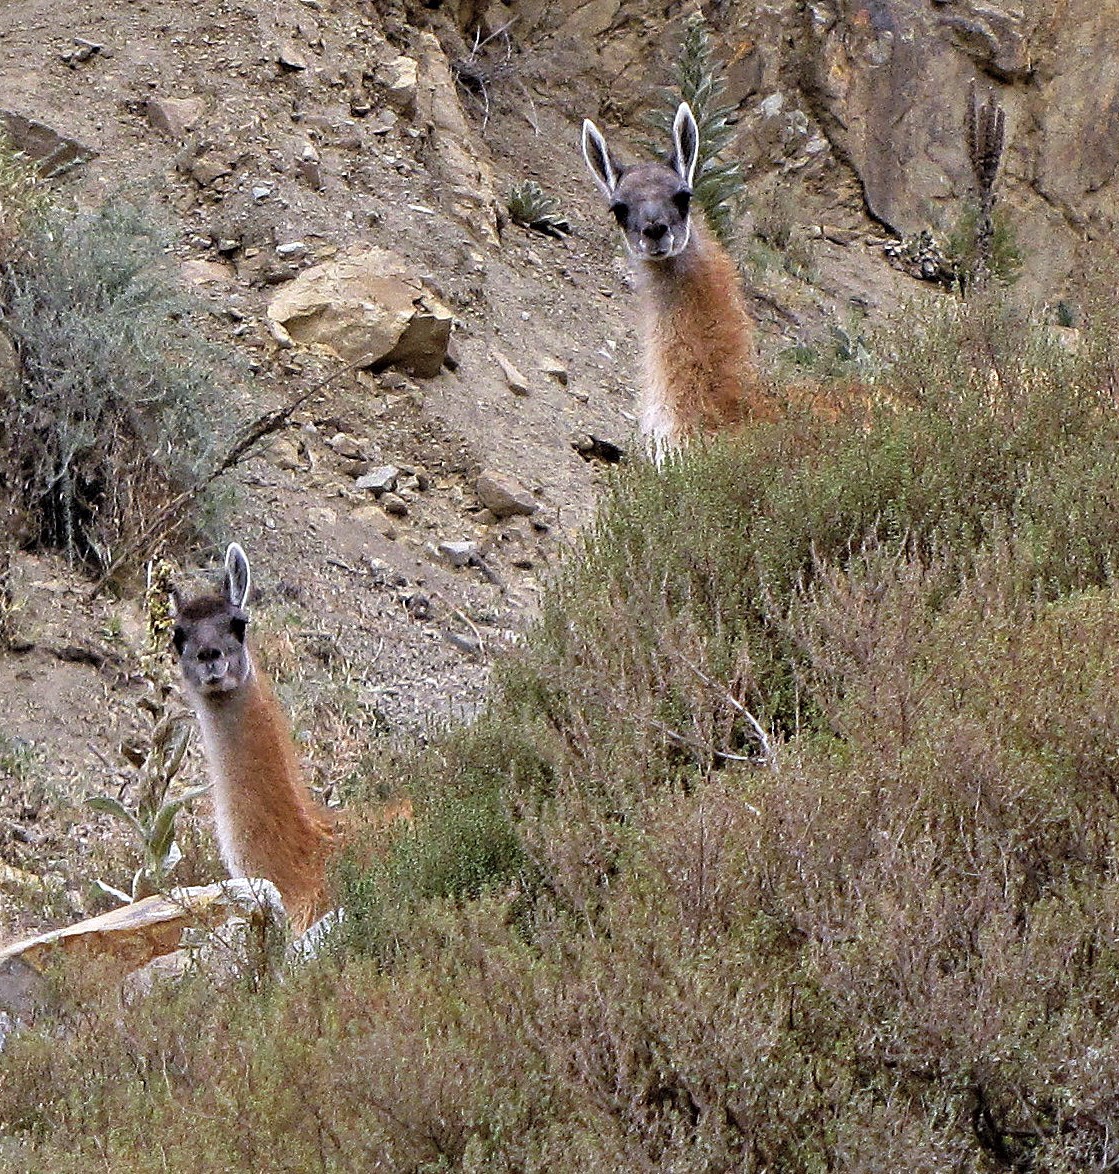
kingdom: Animalia
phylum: Chordata
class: Mammalia
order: Artiodactyla
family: Camelidae
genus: Lama
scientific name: Lama glama
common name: Llama
